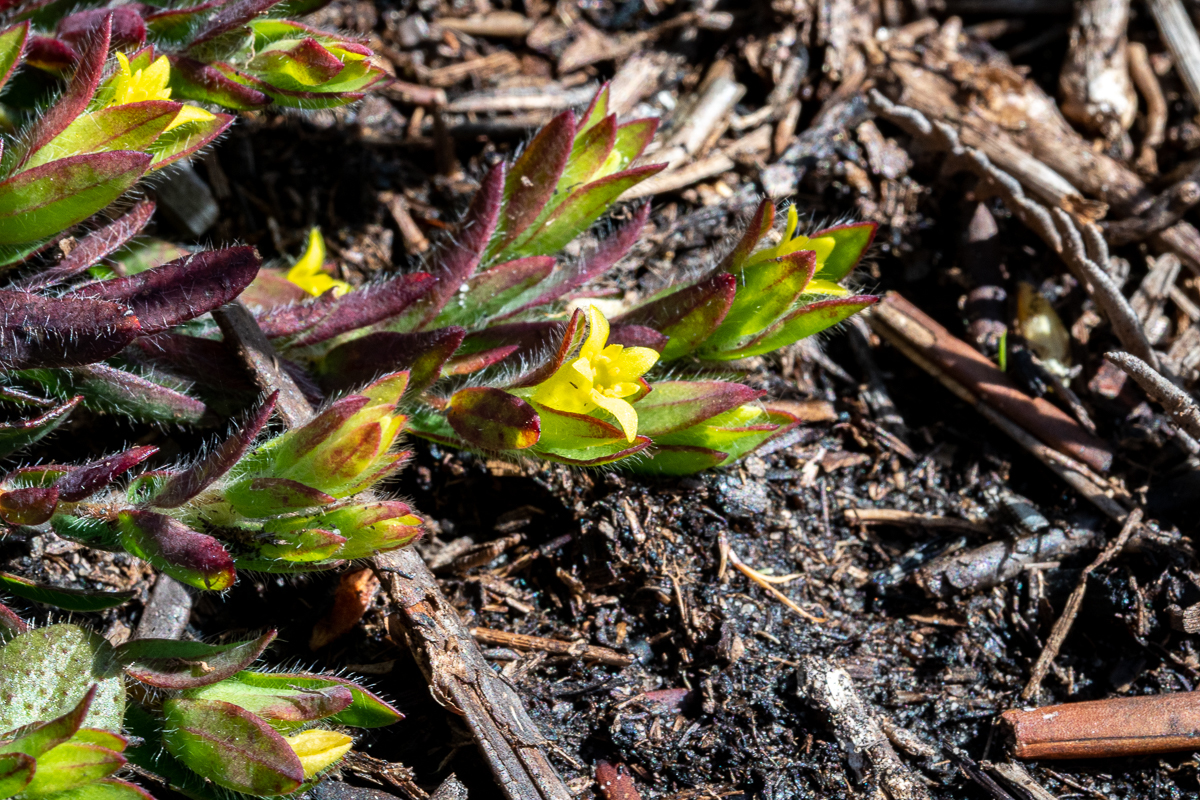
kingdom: Plantae
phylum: Tracheophyta
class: Magnoliopsida
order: Malvales
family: Thymelaeaceae
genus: Gnidia
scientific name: Gnidia humilis
